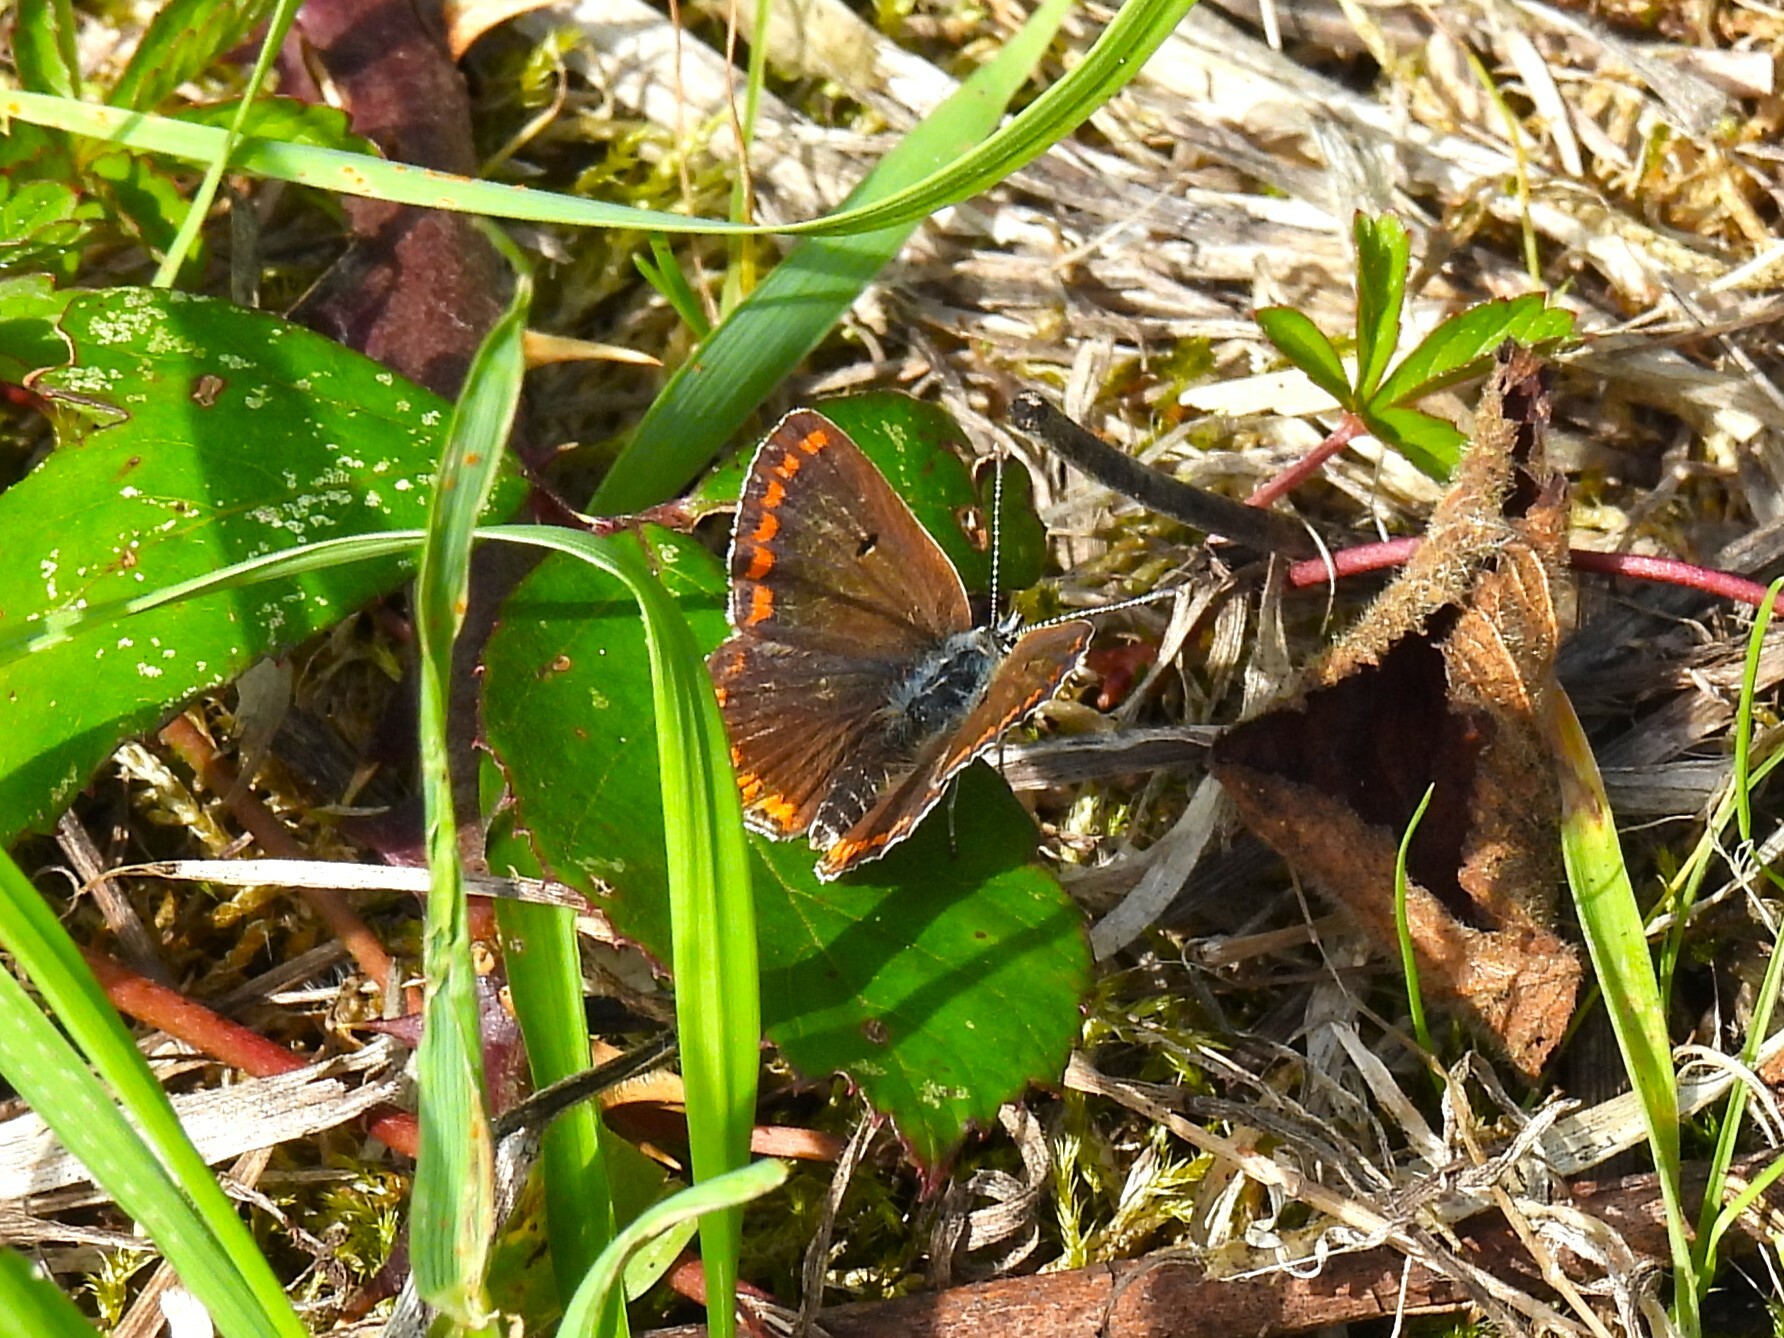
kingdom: Animalia
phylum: Arthropoda
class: Insecta
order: Lepidoptera
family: Lycaenidae
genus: Aricia
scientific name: Aricia agestis
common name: Brown argus
